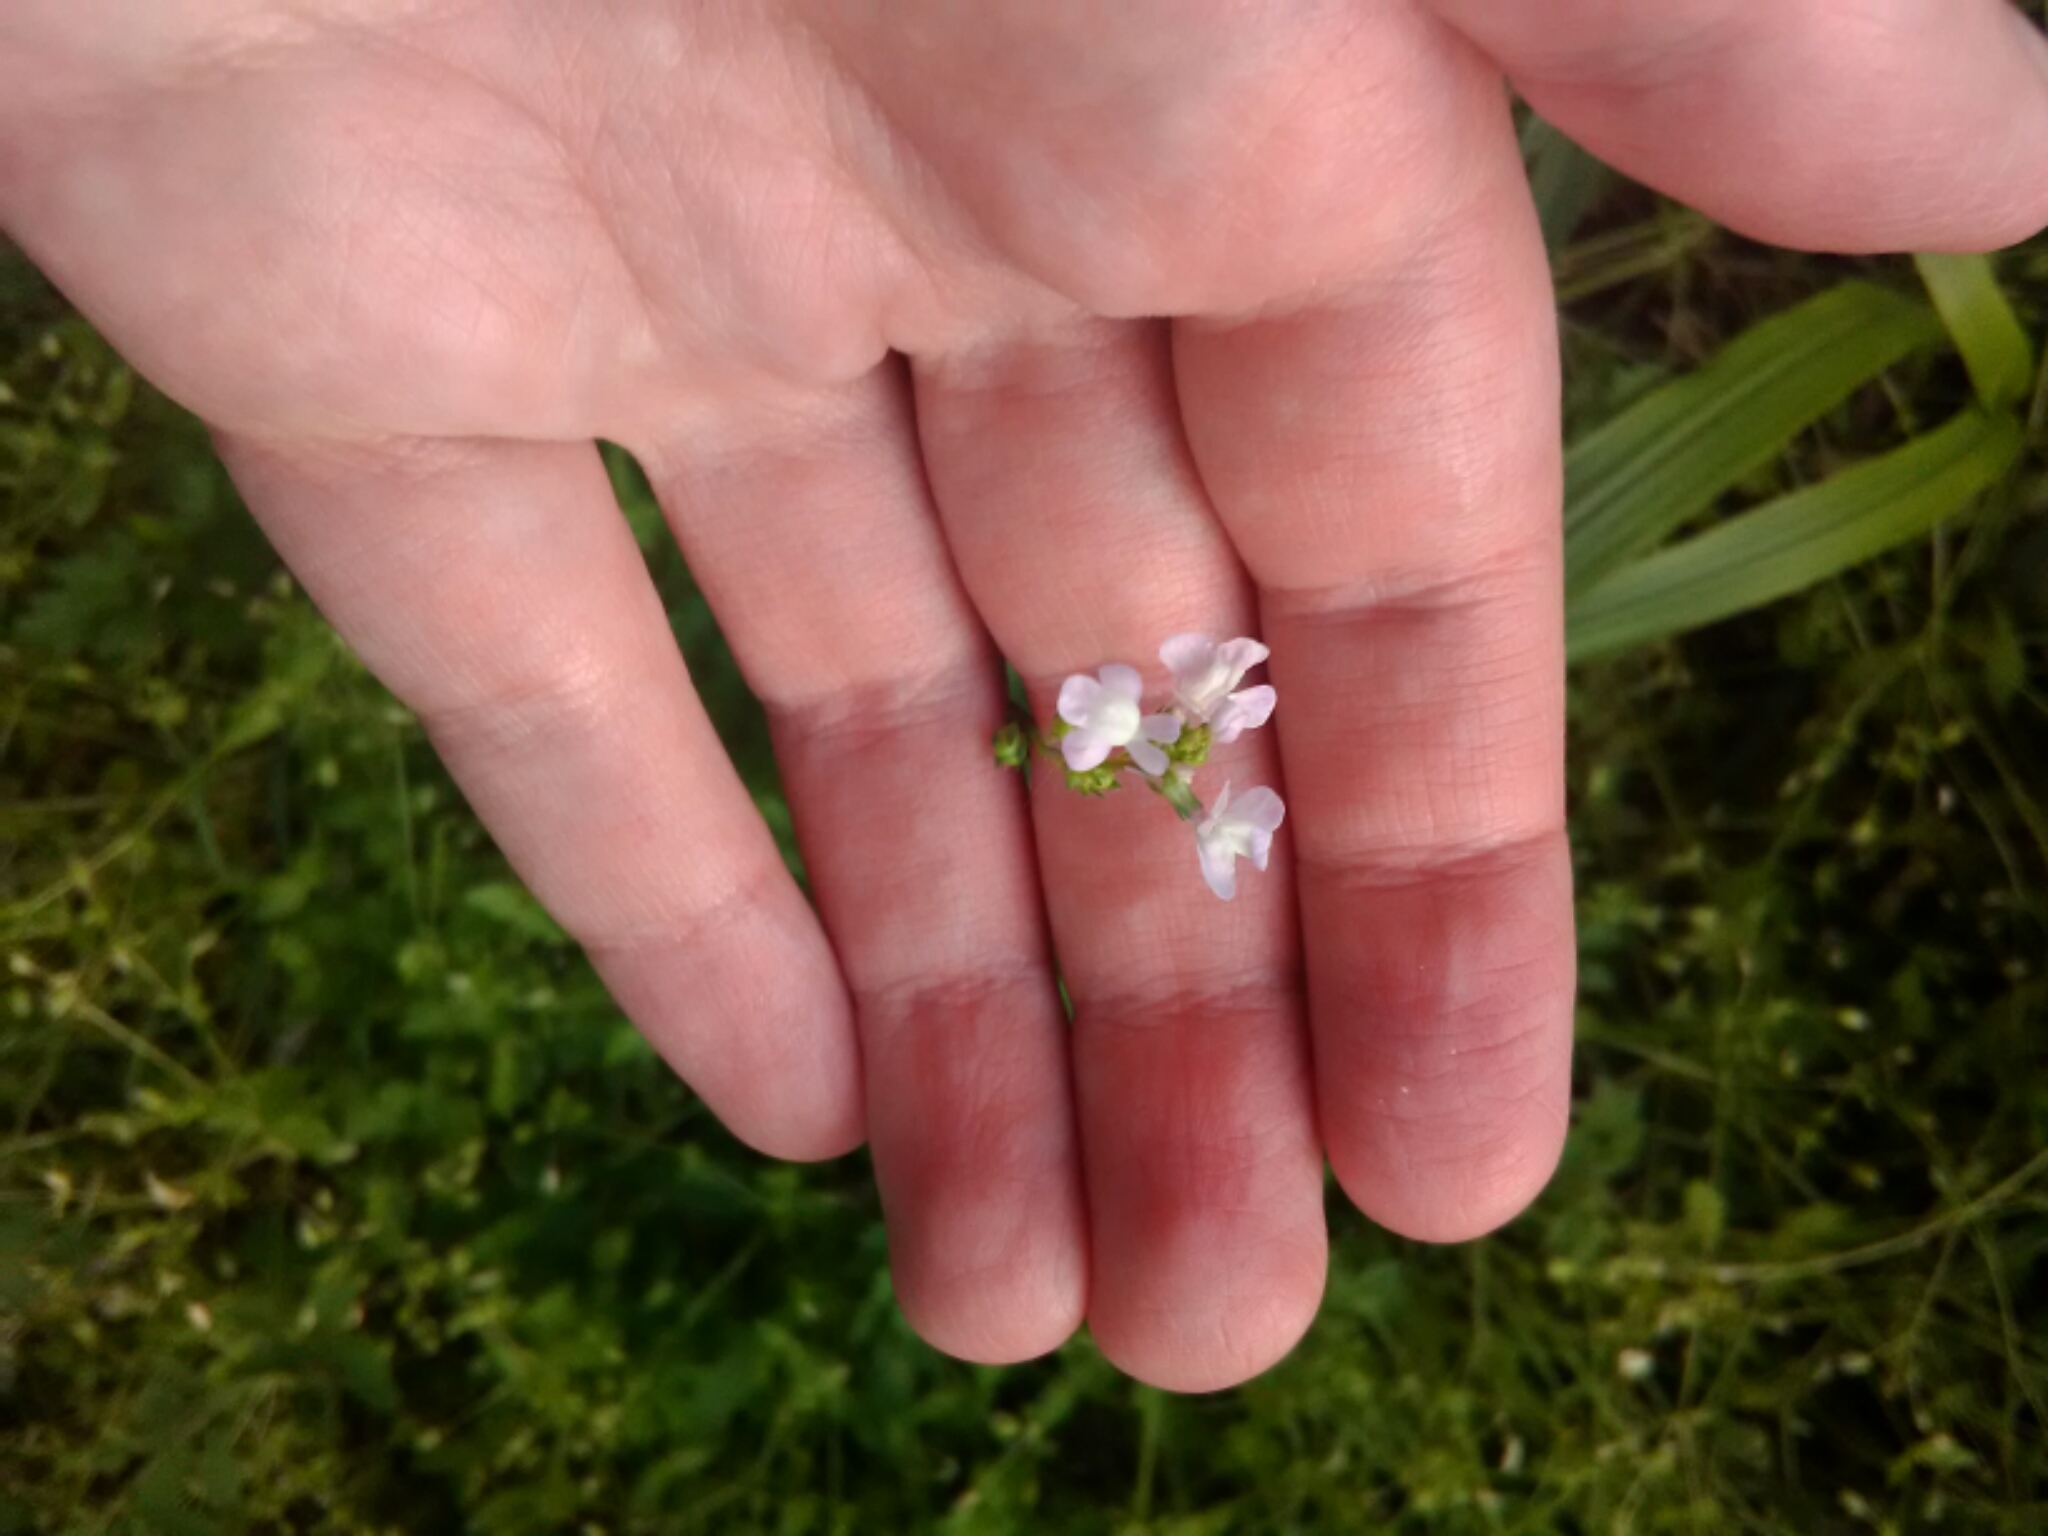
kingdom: Plantae
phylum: Tracheophyta
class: Magnoliopsida
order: Lamiales
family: Plantaginaceae
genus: Nuttallanthus
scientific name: Nuttallanthus canadensis
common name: Blue toadflax
